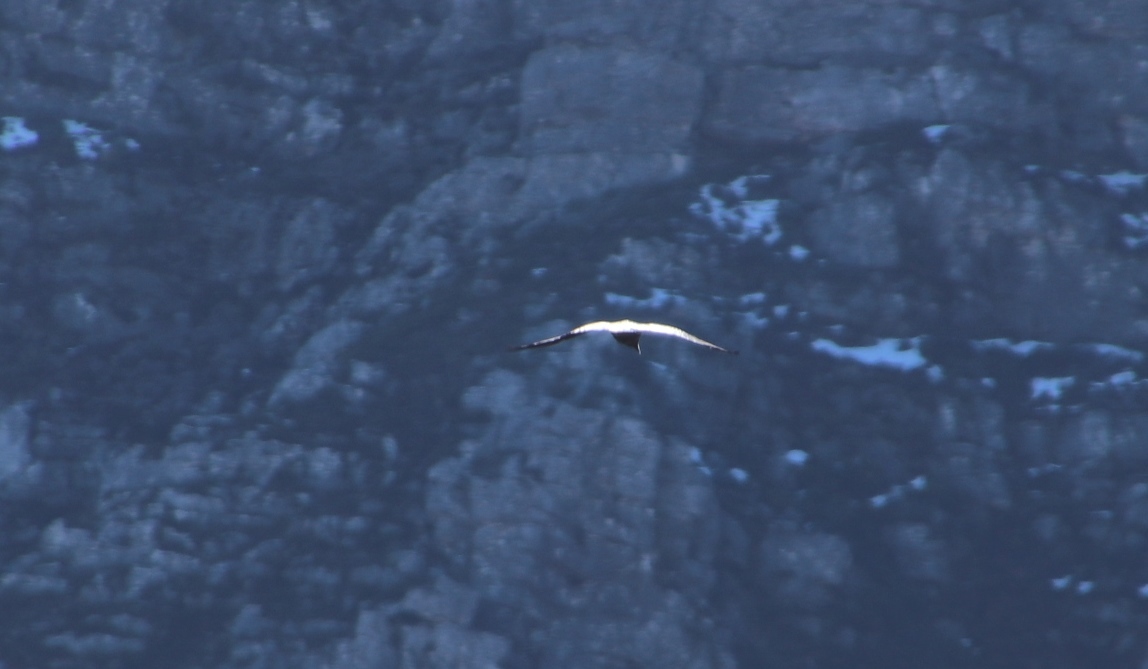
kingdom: Animalia
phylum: Chordata
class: Aves
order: Passeriformes
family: Corvidae
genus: Corvus
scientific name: Corvus albicollis
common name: White-necked raven
